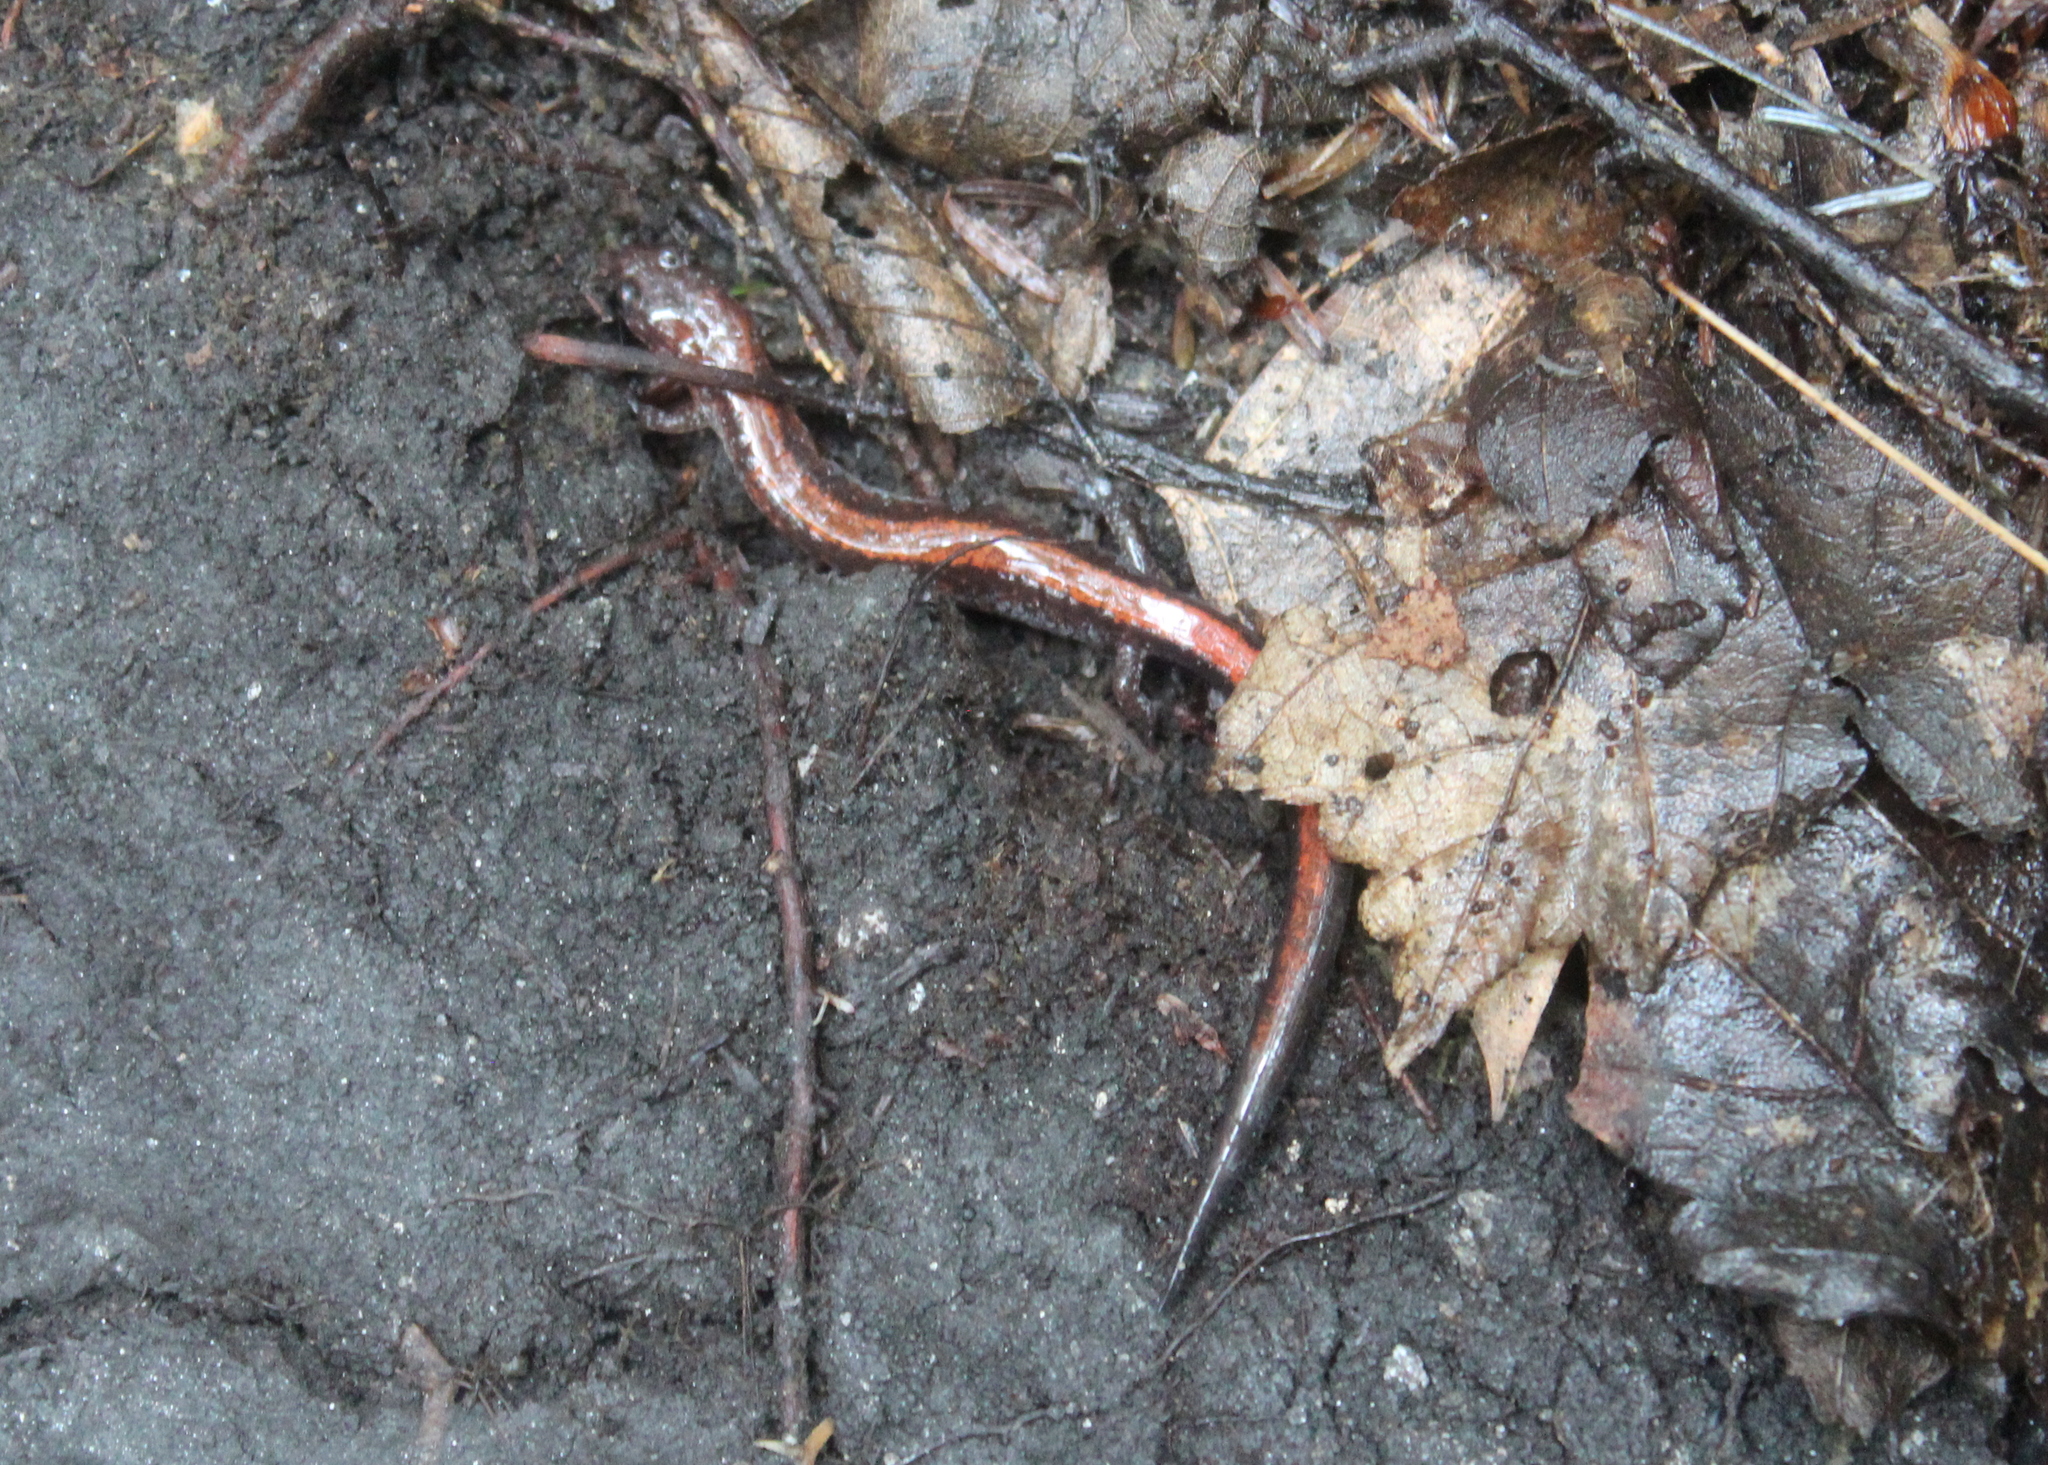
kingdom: Animalia
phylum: Chordata
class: Amphibia
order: Caudata
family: Plethodontidae
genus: Plethodon
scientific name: Plethodon cinereus
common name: Redback salamander
